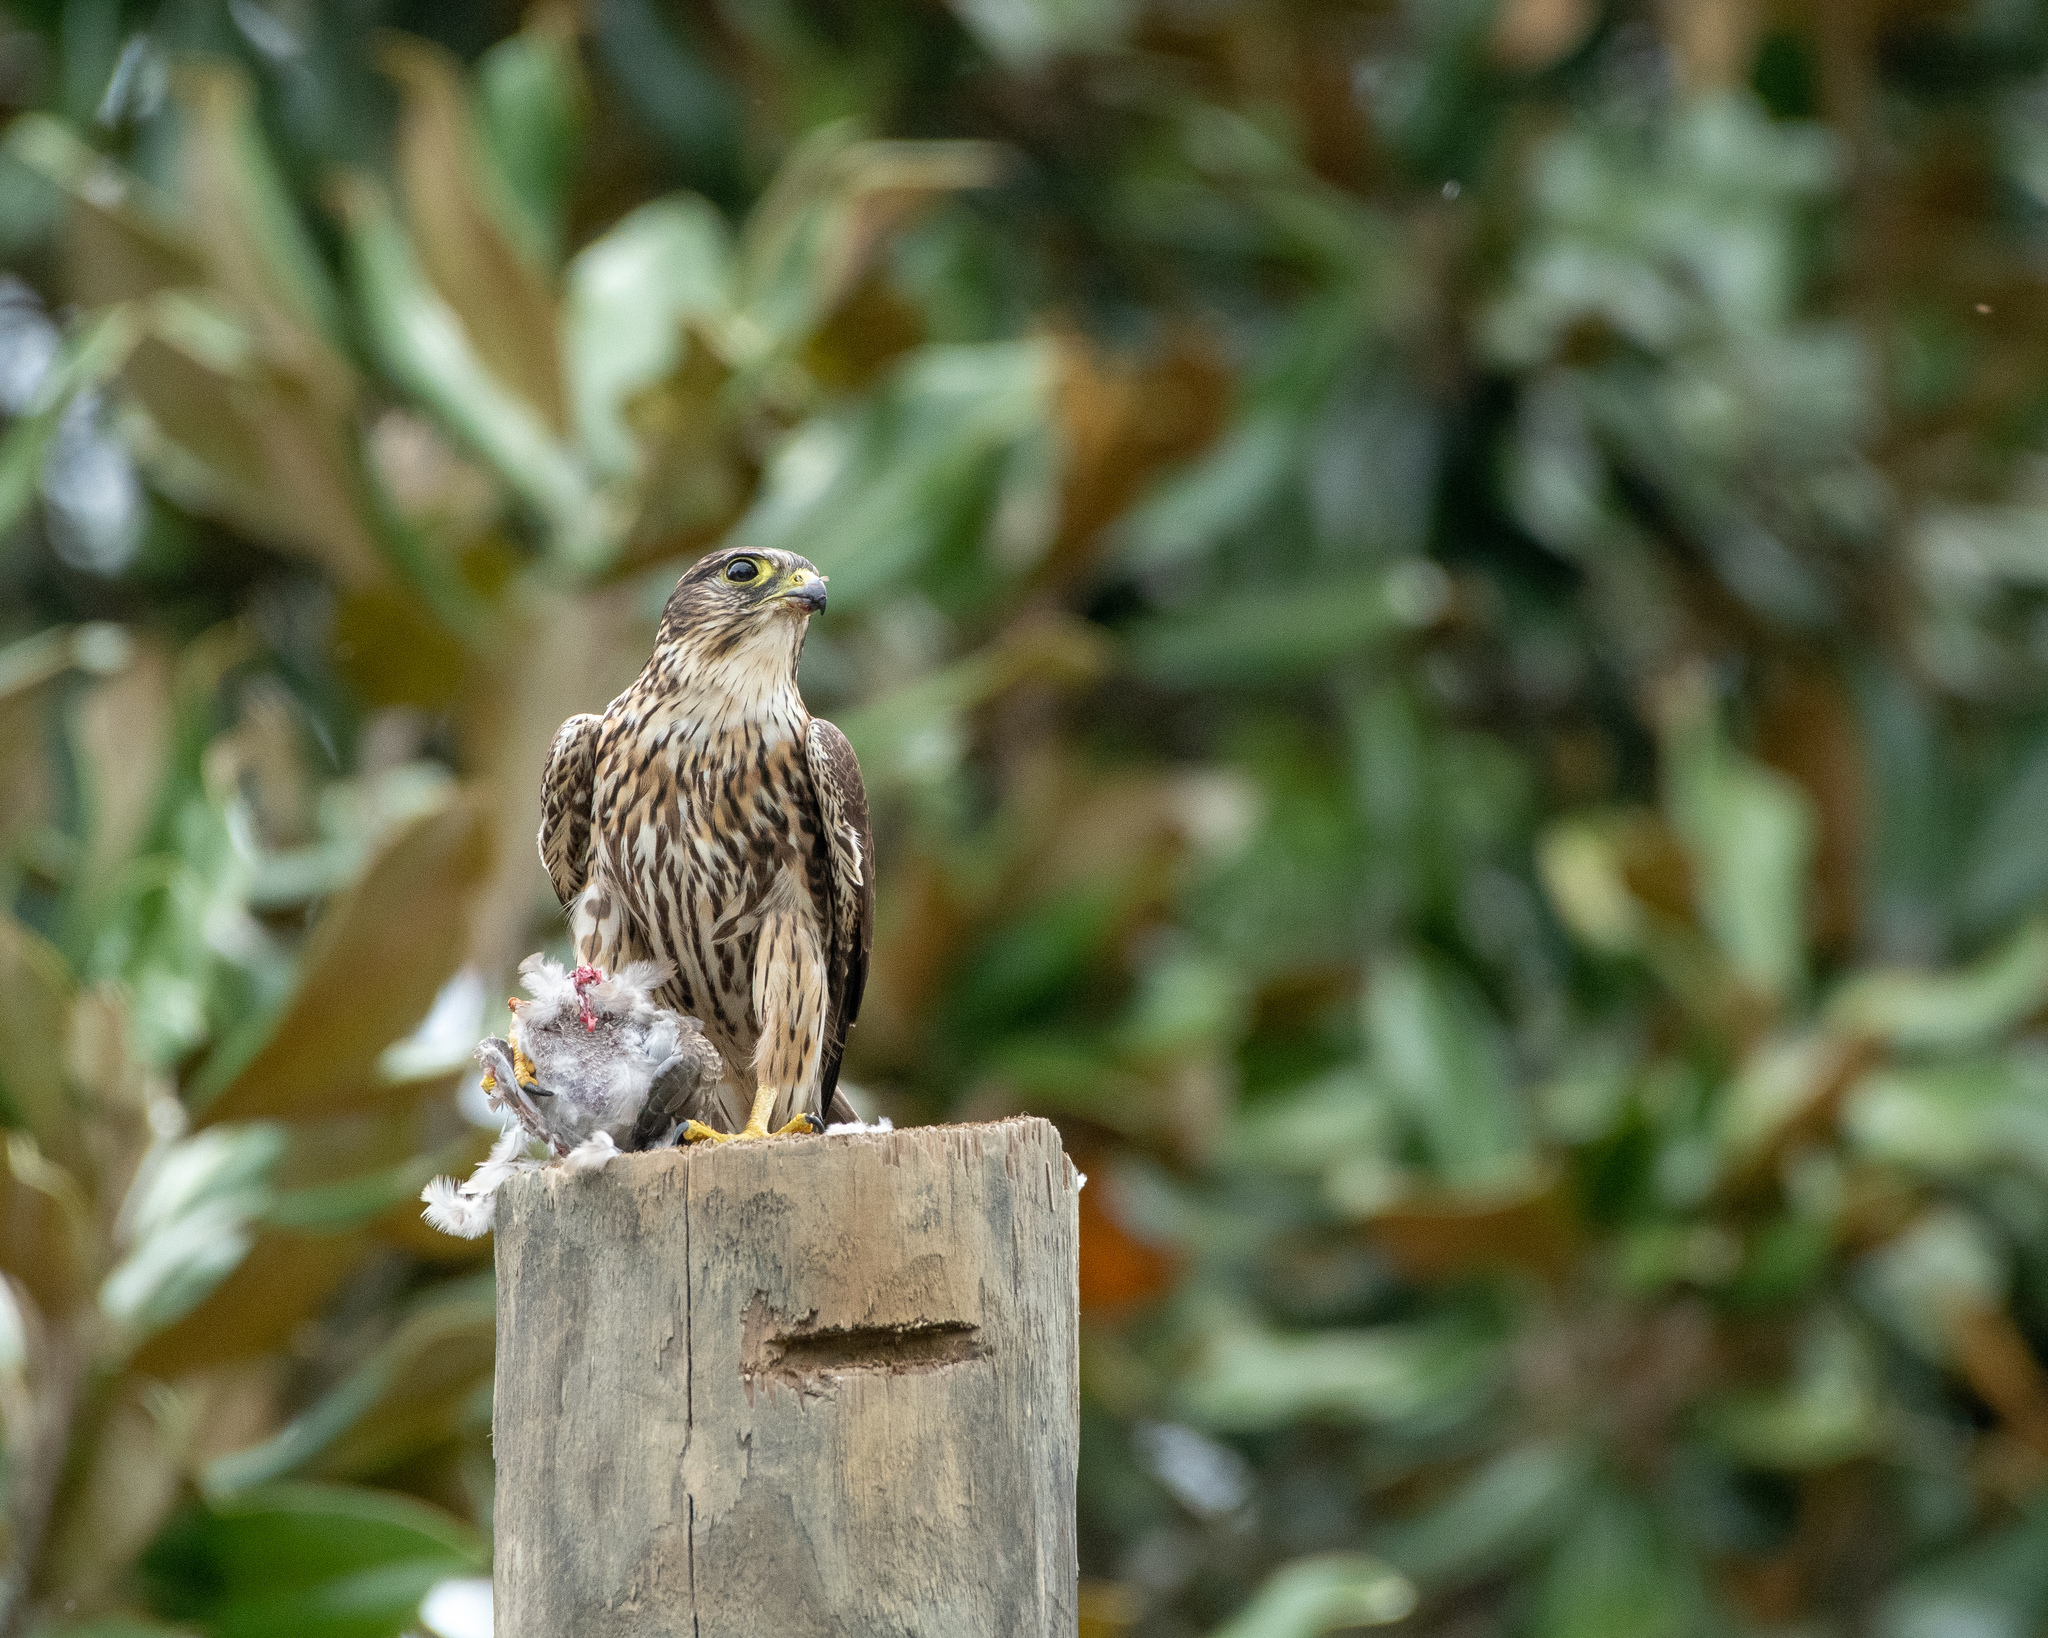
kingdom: Animalia
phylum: Chordata
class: Aves
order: Columbiformes
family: Columbidae
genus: Zenaida
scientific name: Zenaida macroura
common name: Mourning dove
